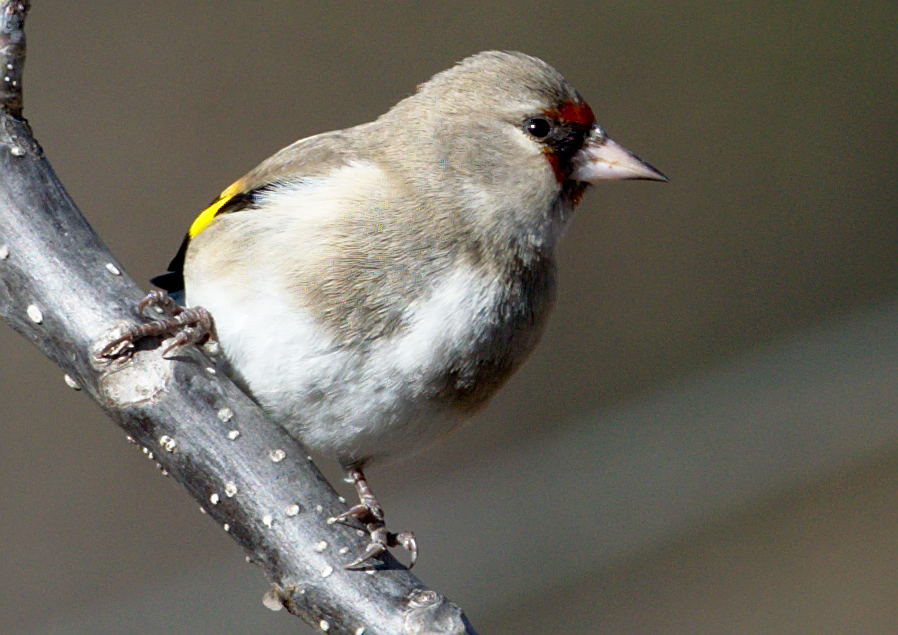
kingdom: Animalia
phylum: Chordata
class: Aves
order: Passeriformes
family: Fringillidae
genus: Carduelis
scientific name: Carduelis carduelis
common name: European goldfinch
